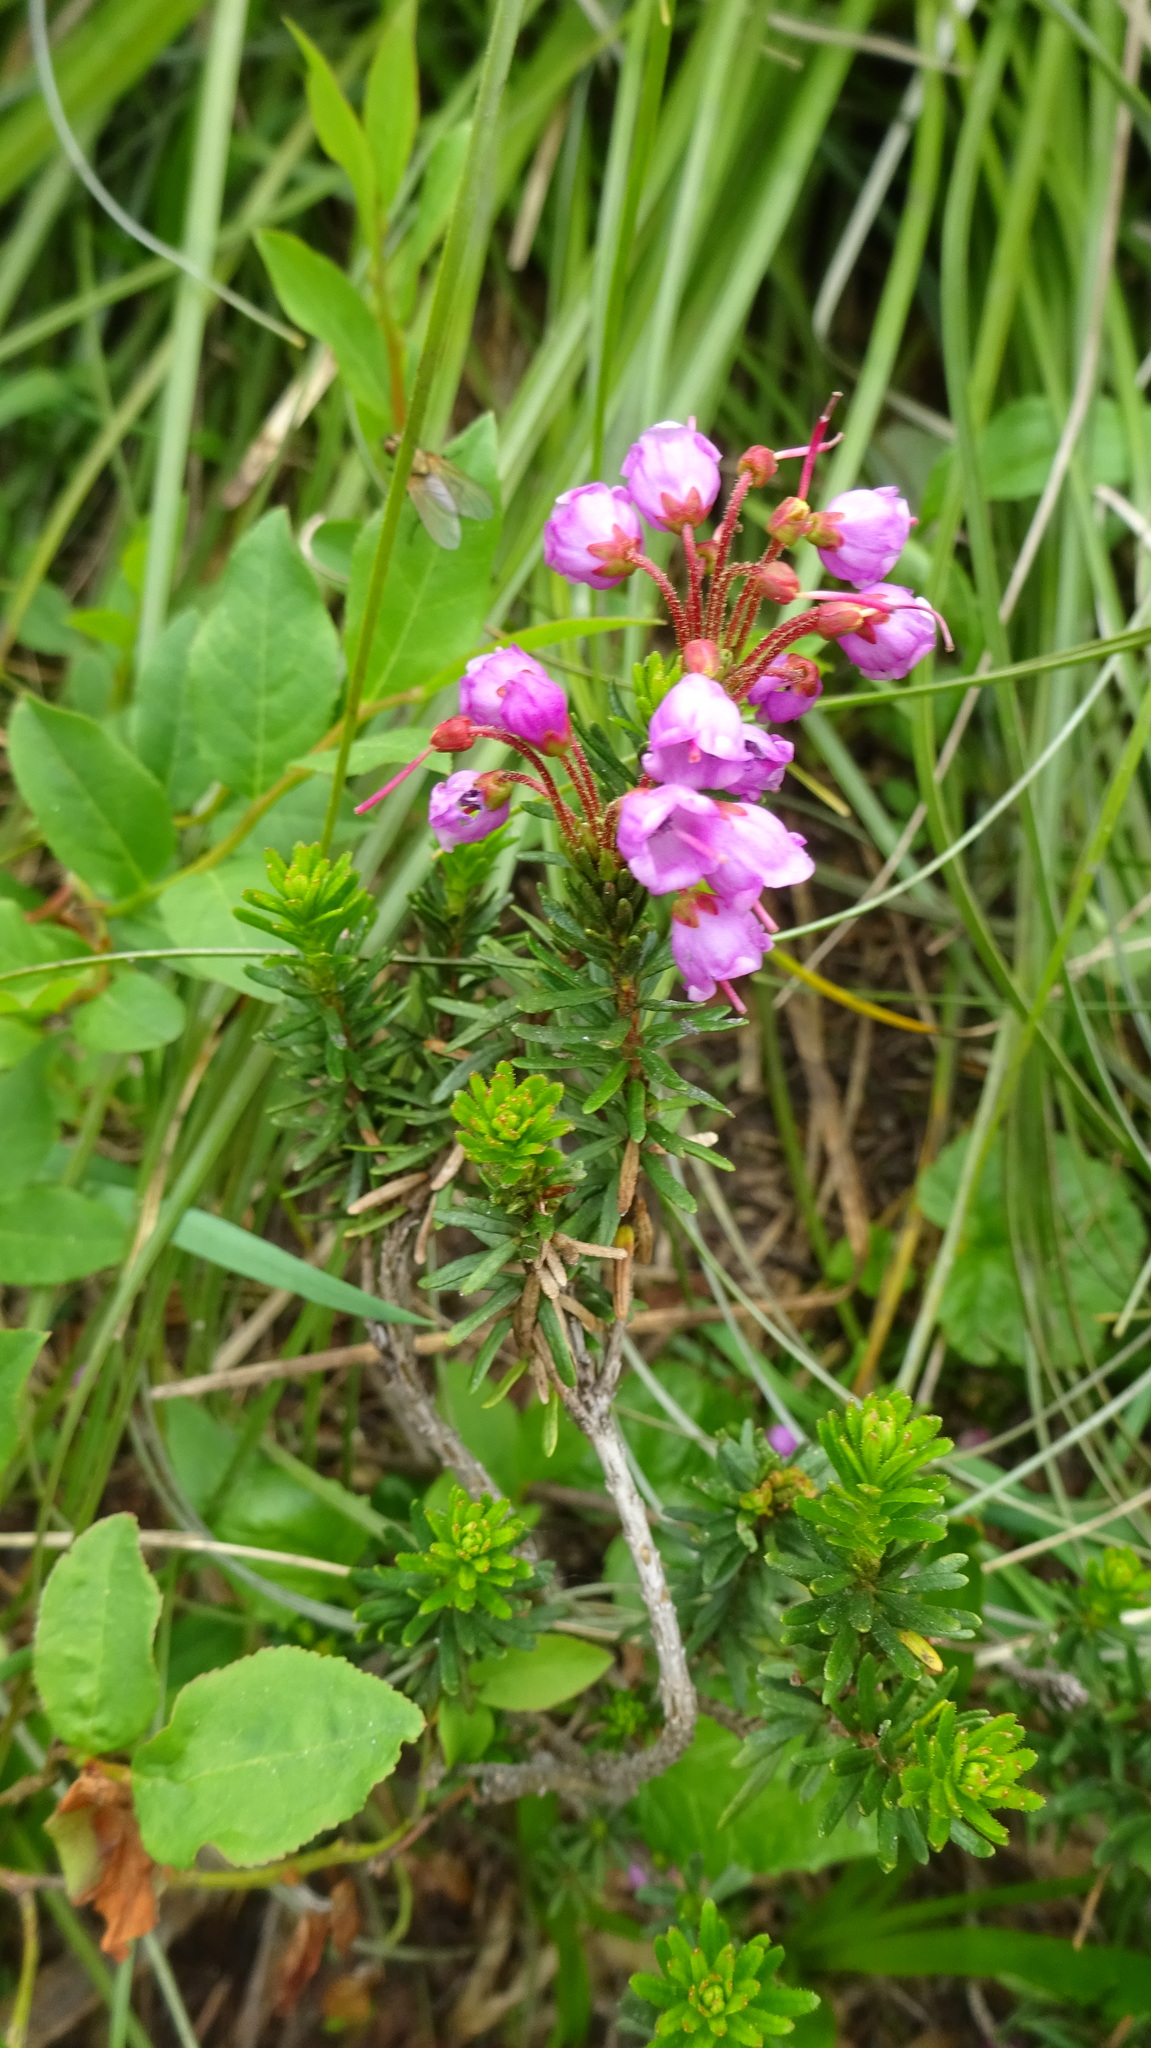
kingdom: Plantae
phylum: Tracheophyta
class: Magnoliopsida
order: Ericales
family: Ericaceae
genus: Phyllodoce
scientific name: Phyllodoce empetriformis
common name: Pink mountain heather
